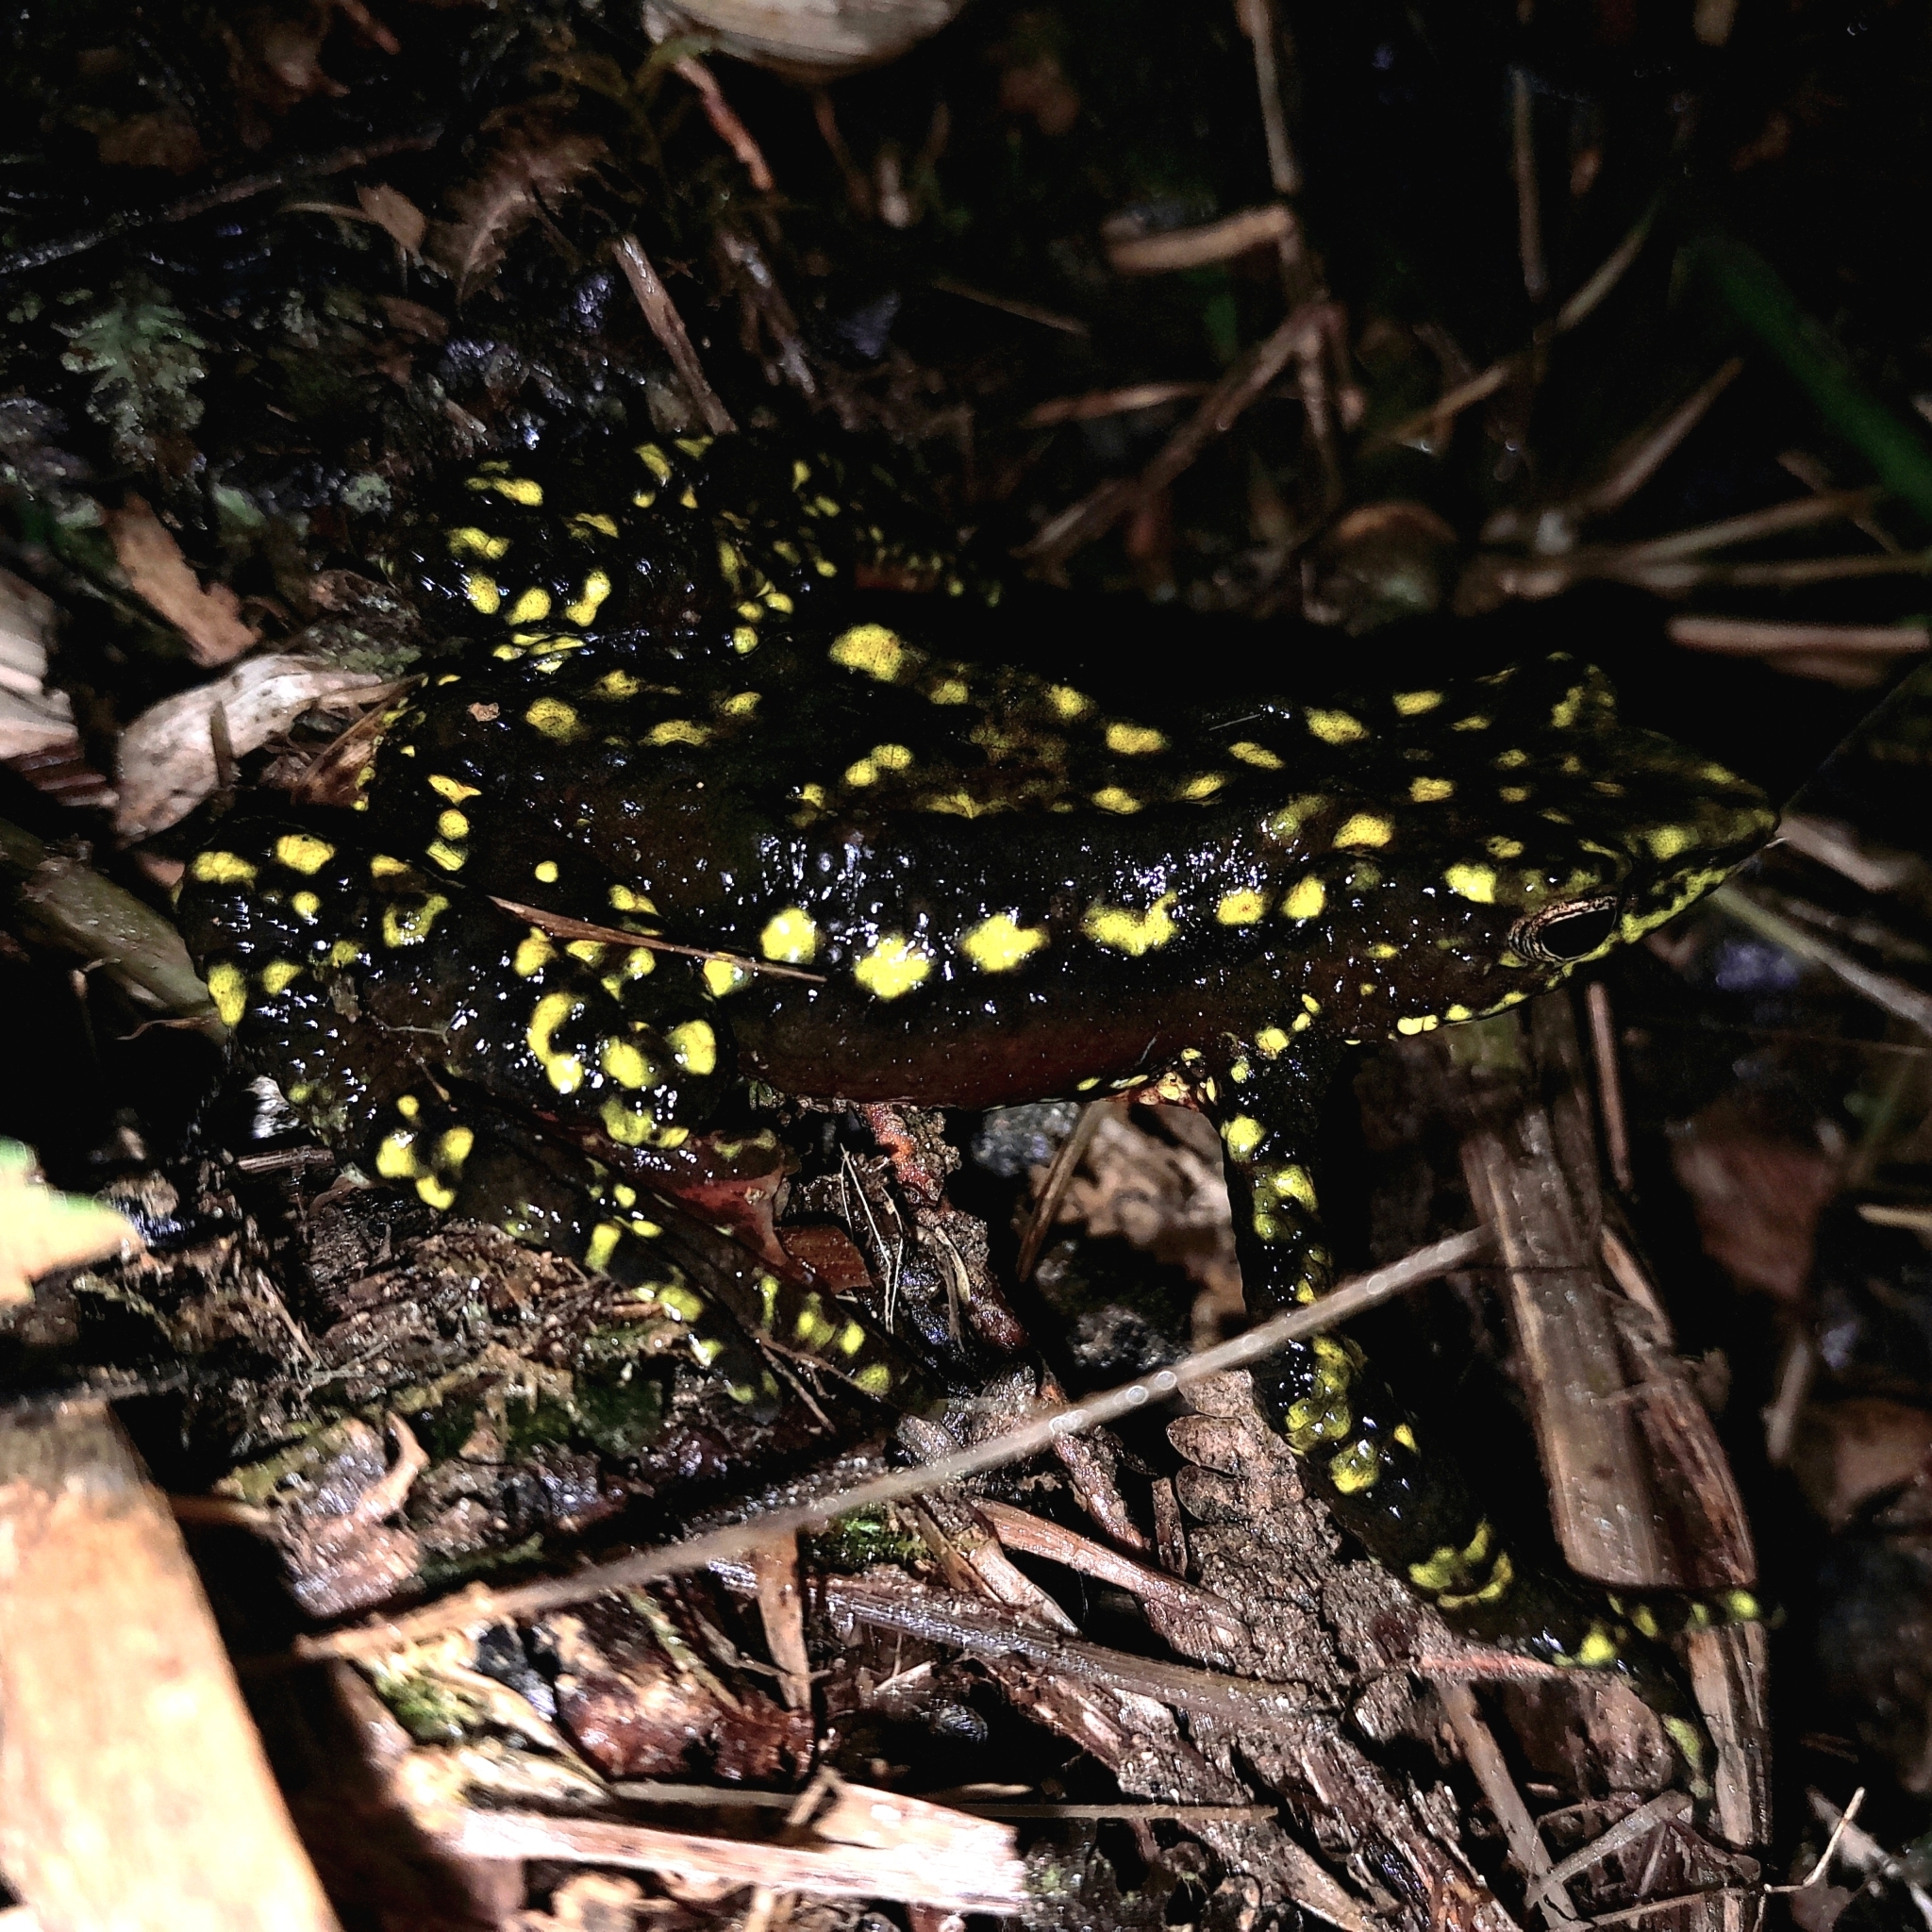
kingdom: Animalia
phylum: Chordata
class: Amphibia
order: Anura
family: Bufonidae
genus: Atelopus
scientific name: Atelopus laetissimus
